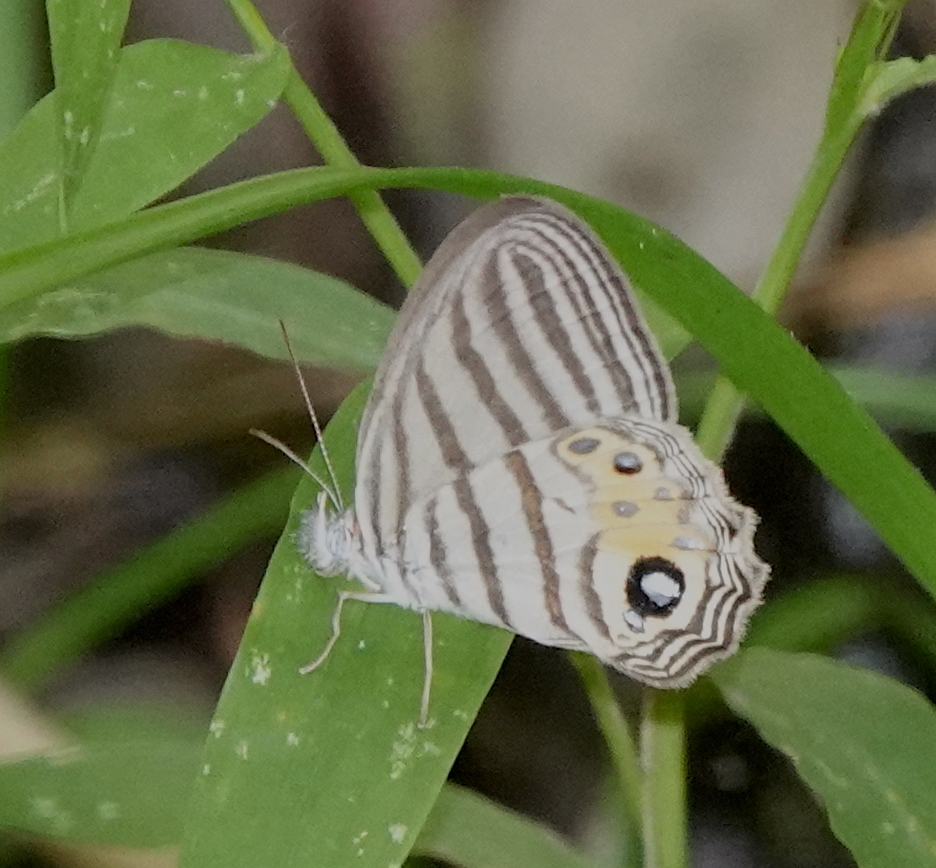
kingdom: Animalia
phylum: Arthropoda
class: Insecta
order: Lepidoptera
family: Nymphalidae
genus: Argentaria
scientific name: Argentaria
